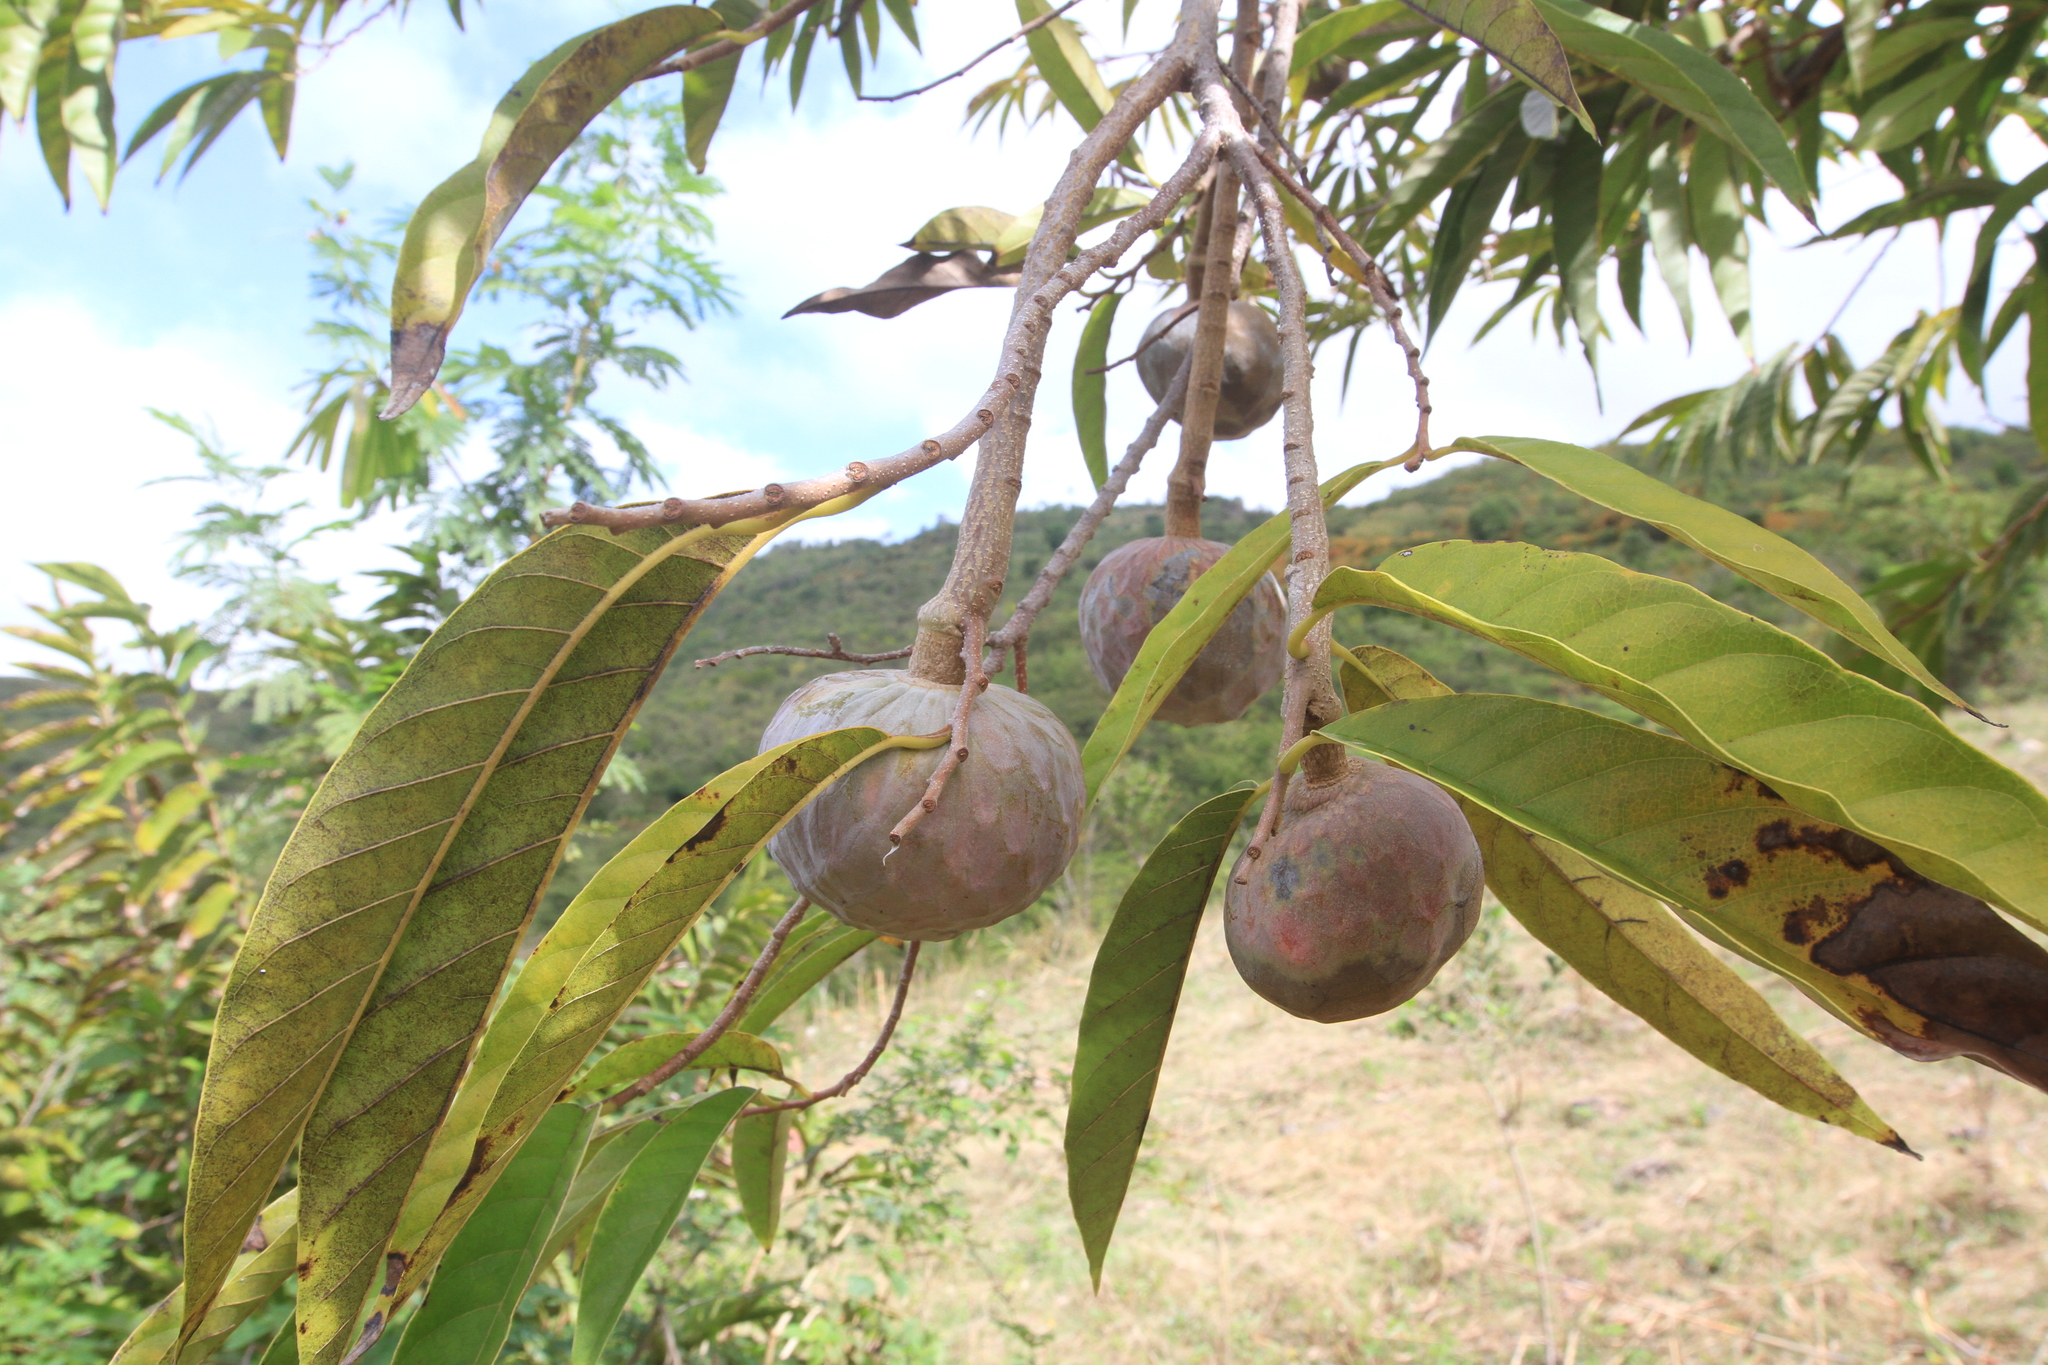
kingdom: Plantae
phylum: Tracheophyta
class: Magnoliopsida
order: Magnoliales
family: Annonaceae
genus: Annona
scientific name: Annona reticulata
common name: Custard apple
